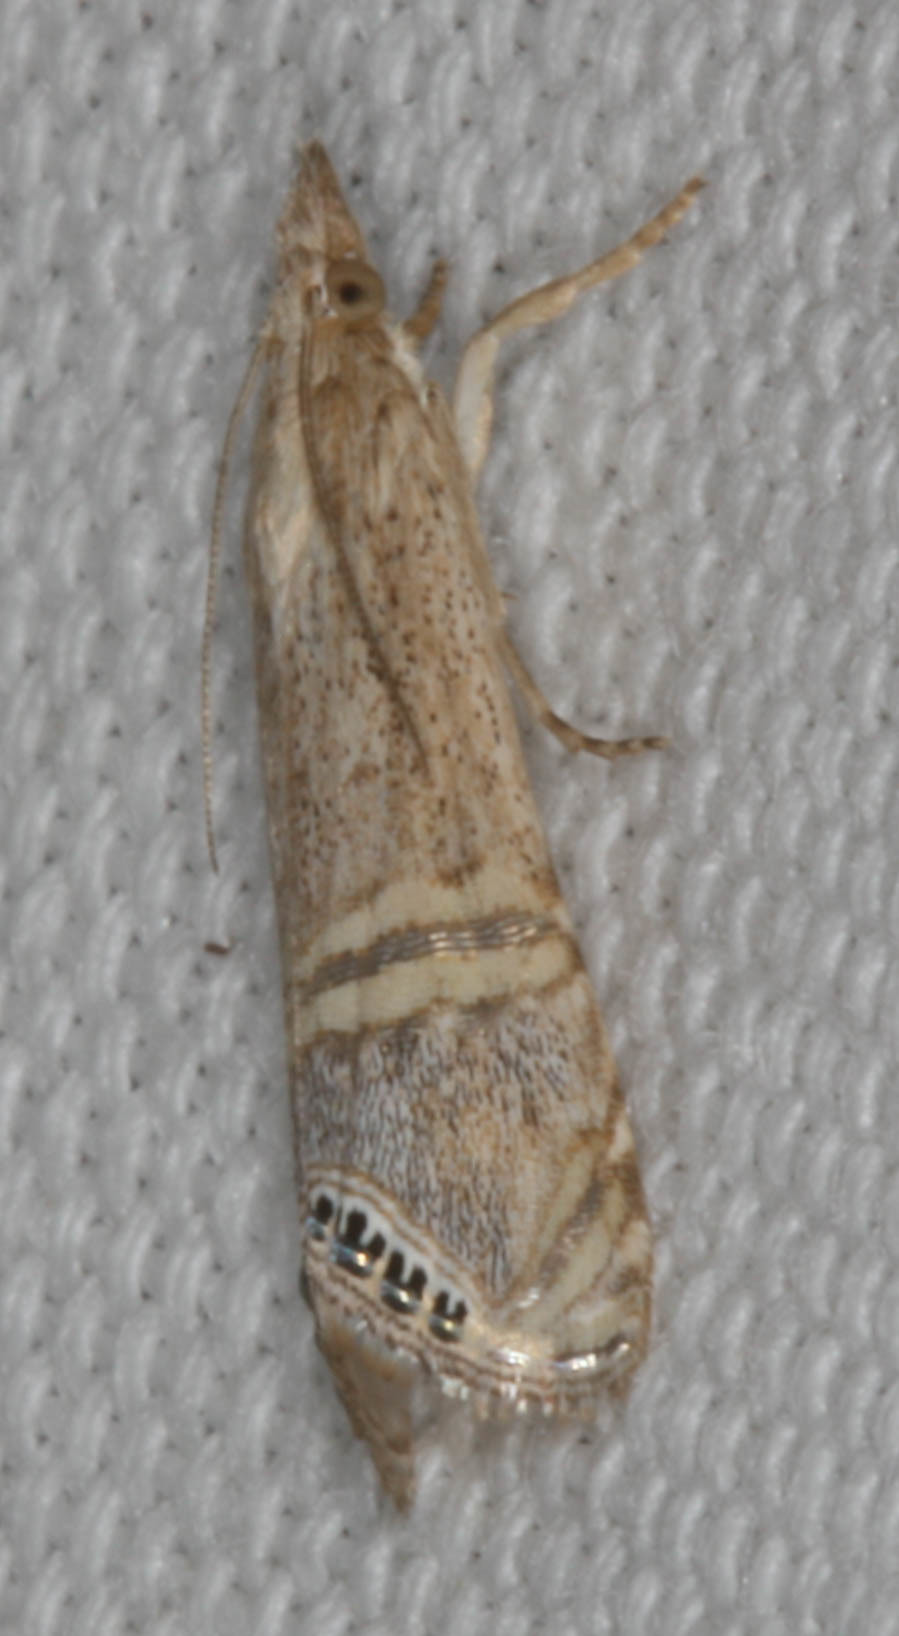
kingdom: Animalia
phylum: Arthropoda
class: Insecta
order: Lepidoptera
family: Crambidae
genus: Euchromius
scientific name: Euchromius ocellea
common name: Necklace veneer moth
